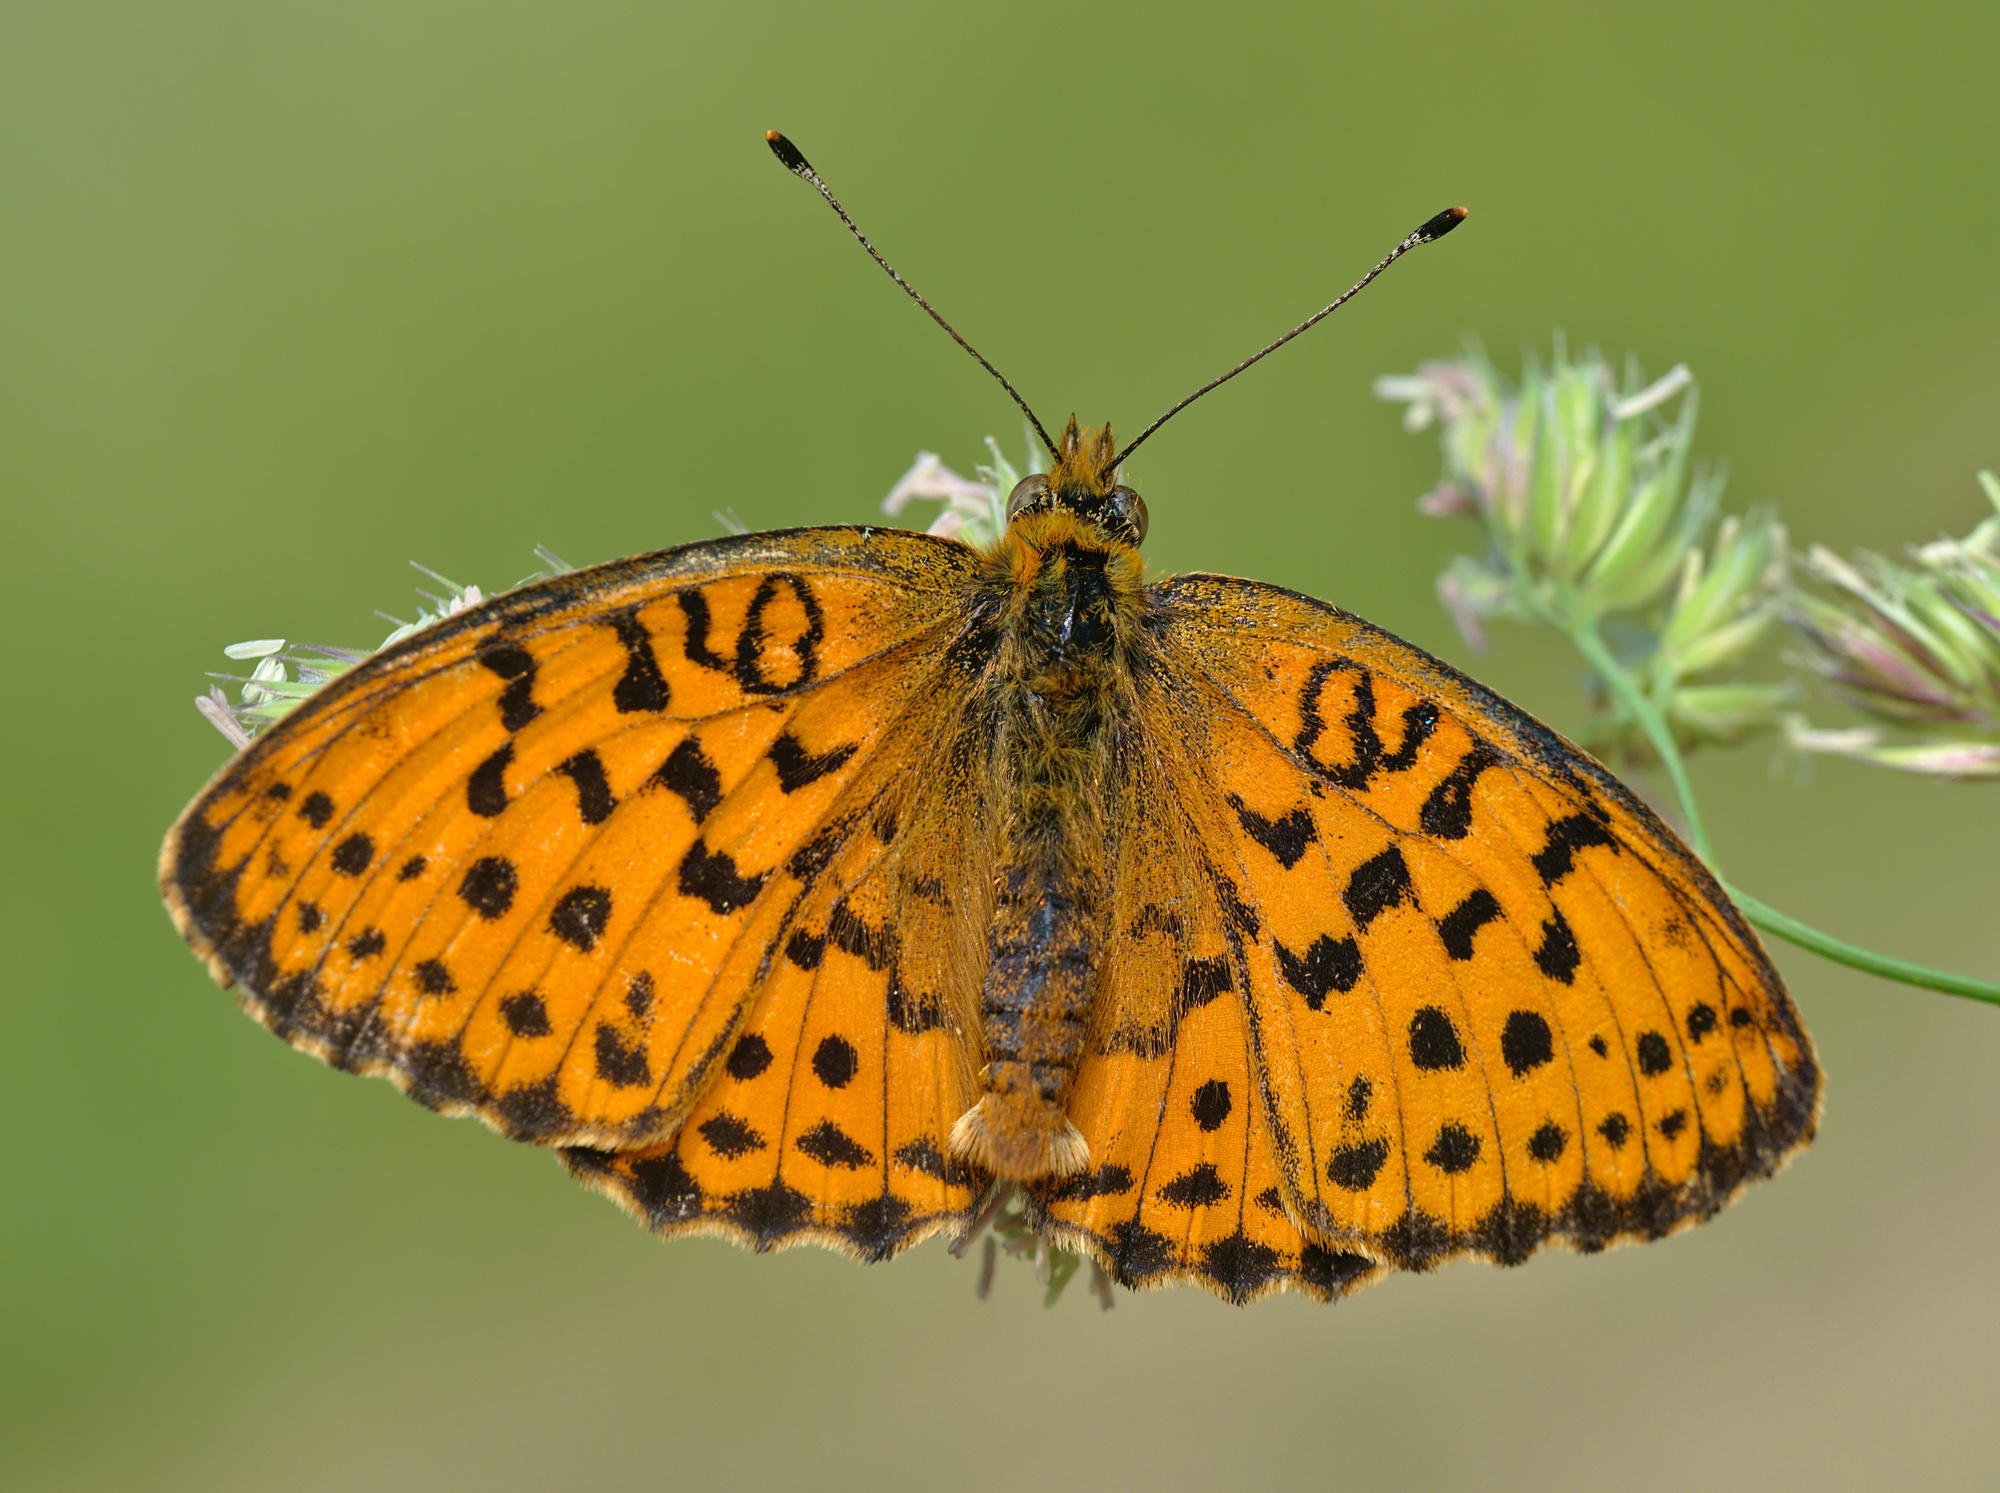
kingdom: Animalia
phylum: Arthropoda
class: Insecta
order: Lepidoptera
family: Nymphalidae
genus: Brenthis
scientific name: Brenthis daphne
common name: Marbled fritillary
